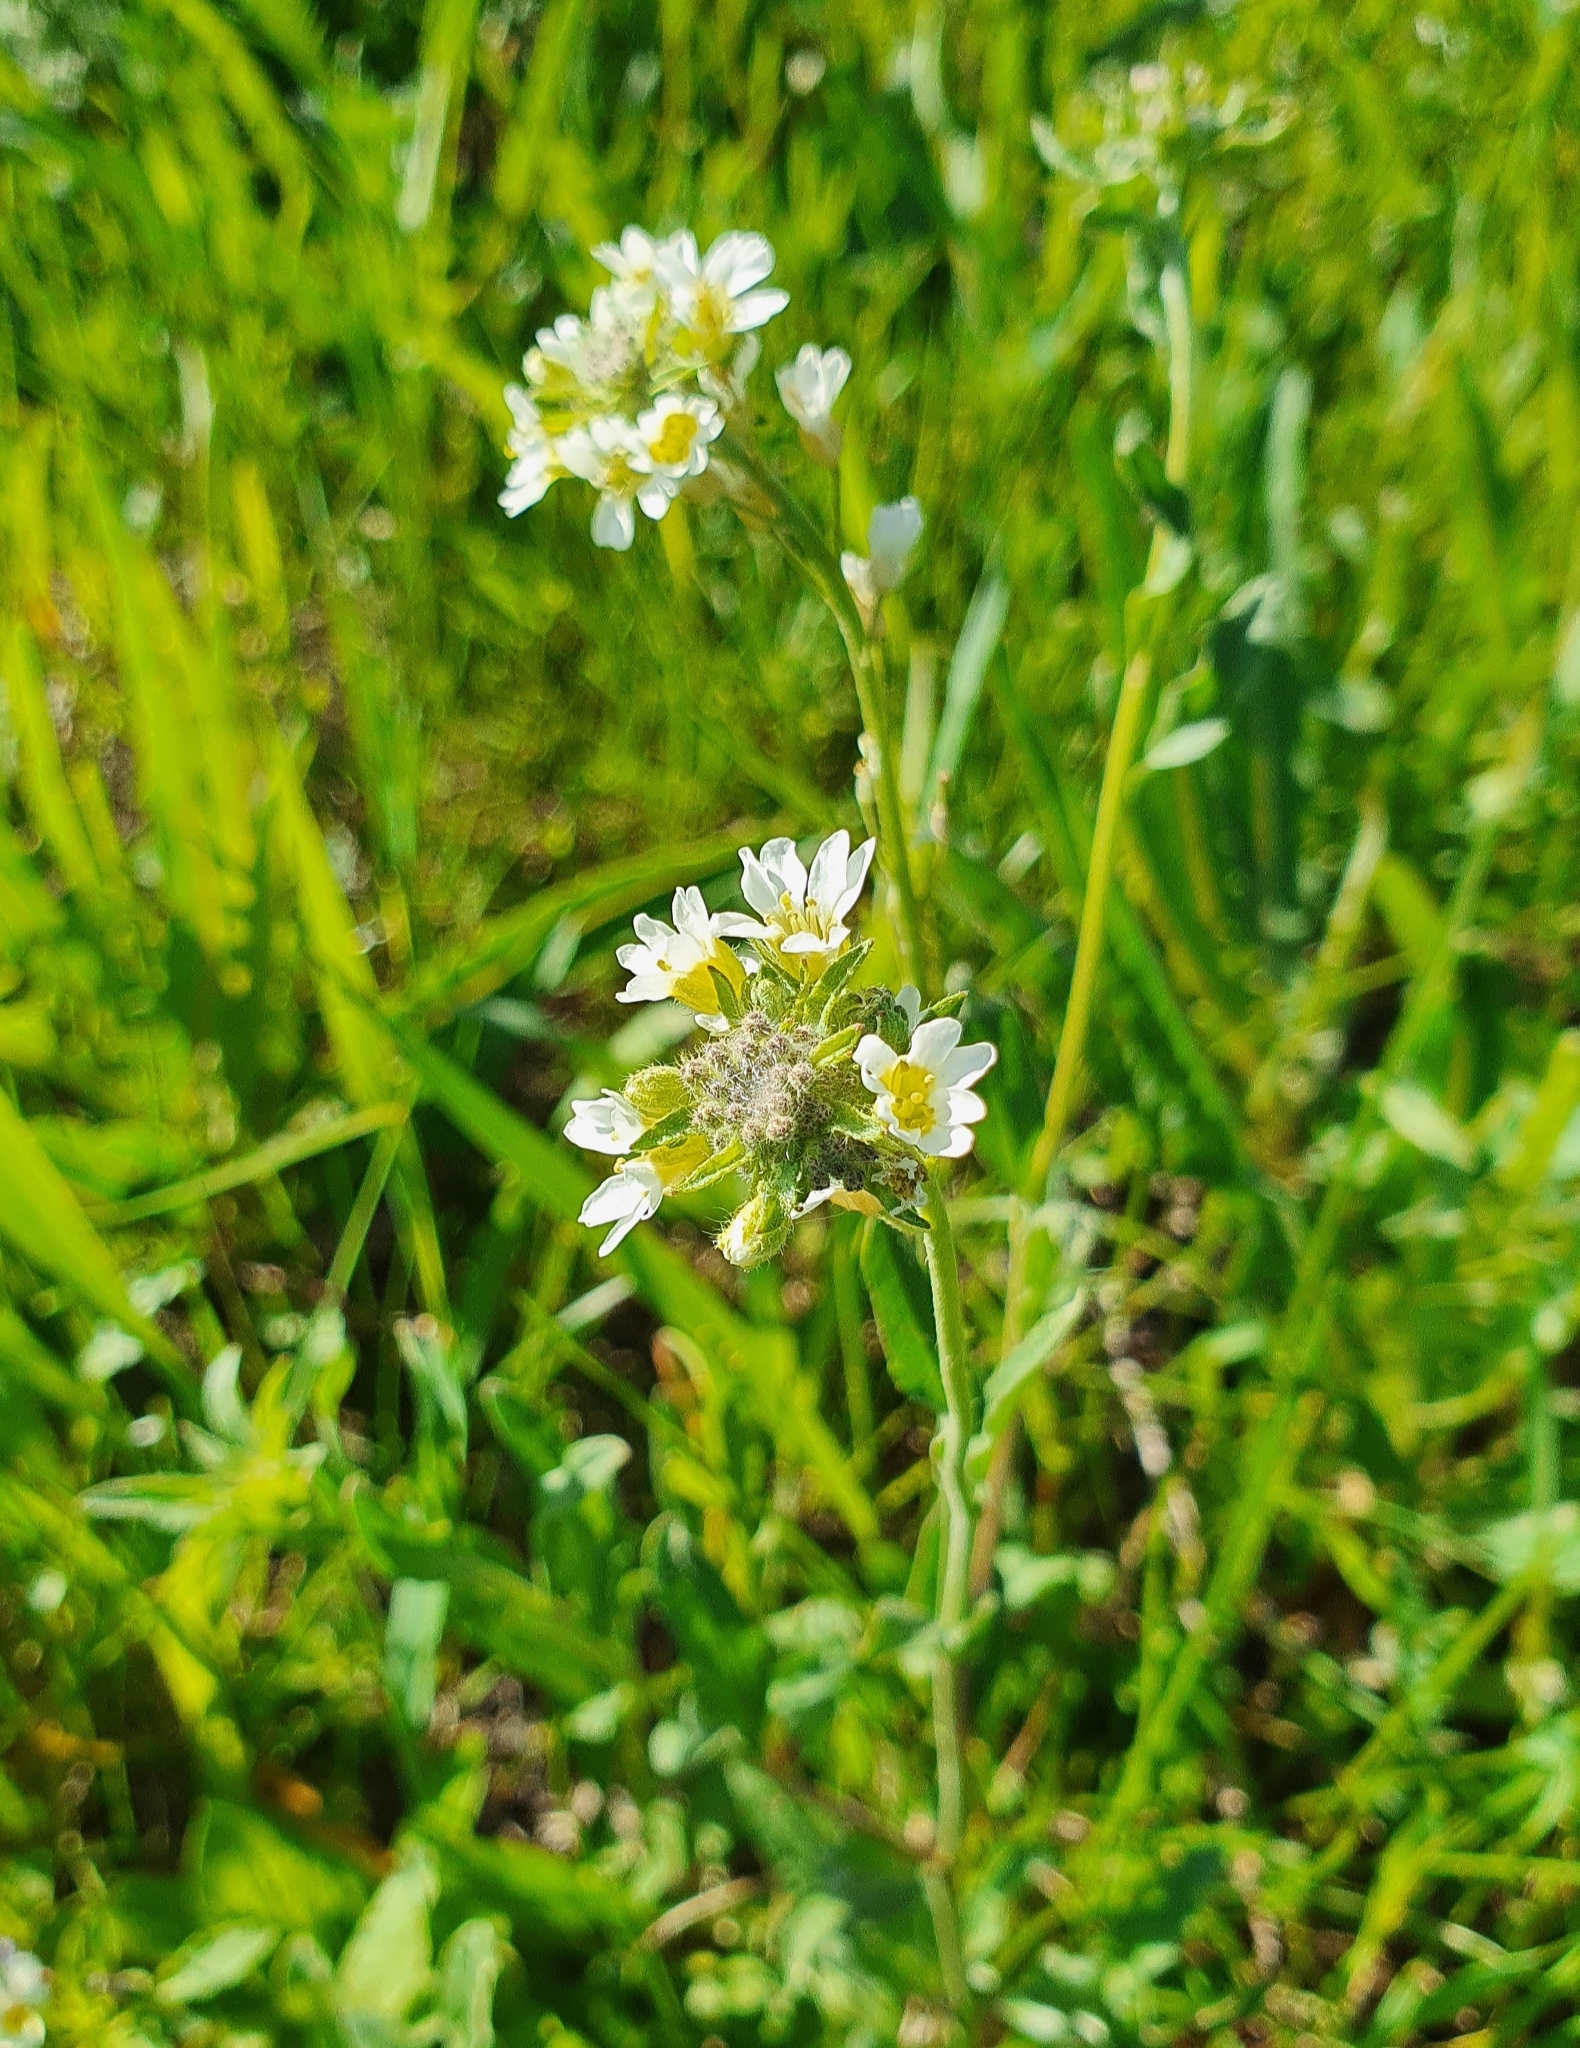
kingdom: Plantae
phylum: Tracheophyta
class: Magnoliopsida
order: Brassicales
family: Brassicaceae
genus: Berteroa
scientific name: Berteroa incana
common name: Hoary alison
